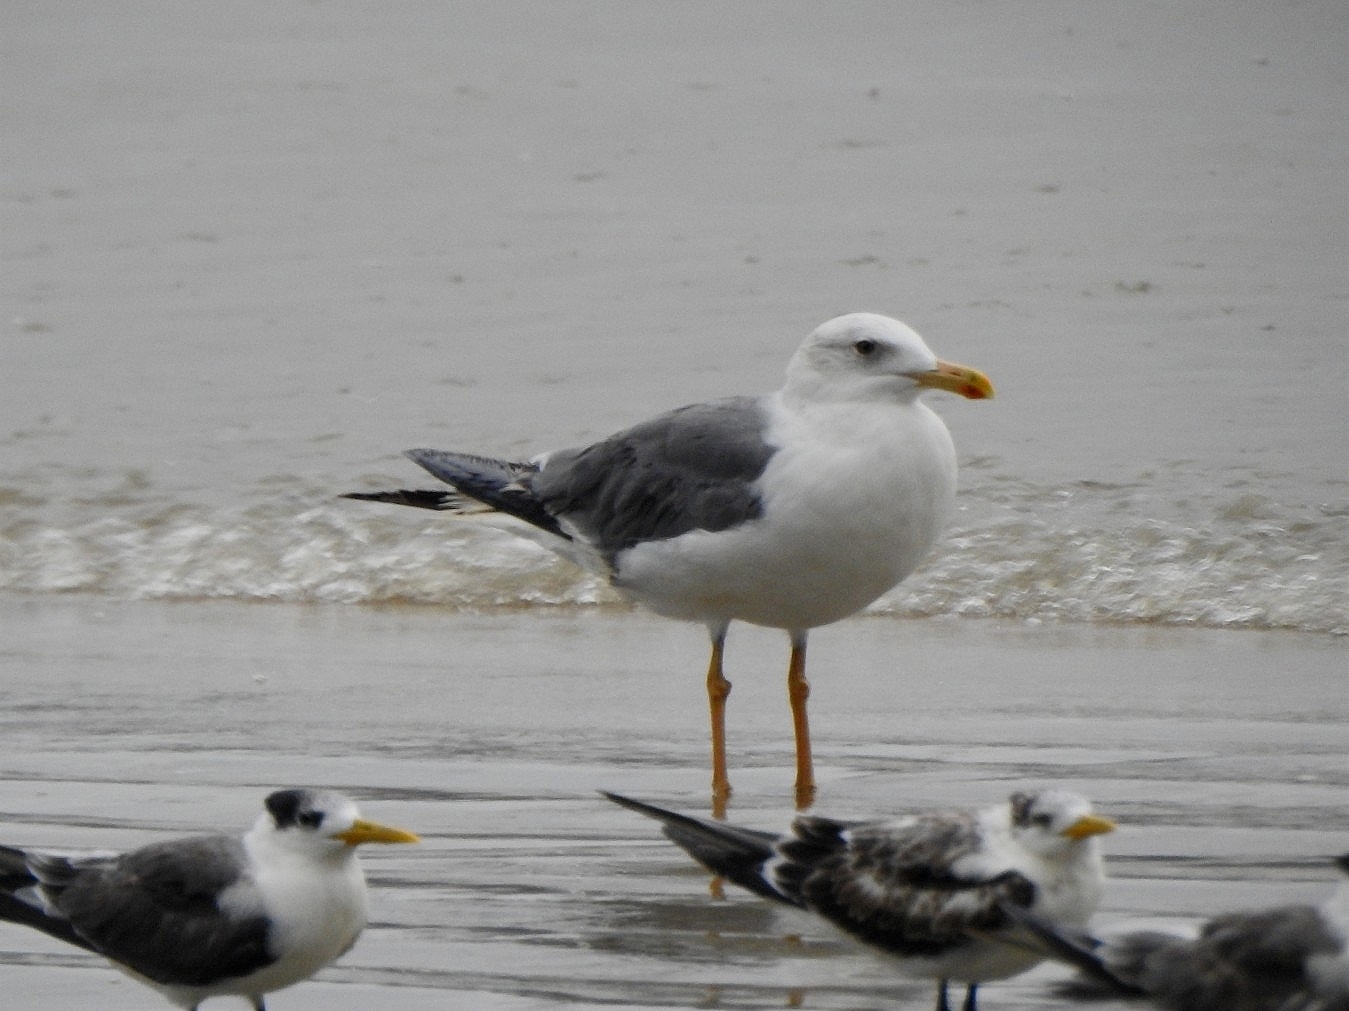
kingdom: Animalia
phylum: Chordata
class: Aves
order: Charadriiformes
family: Laridae
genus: Larus
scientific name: Larus fuscus
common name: Lesser black-backed gull
